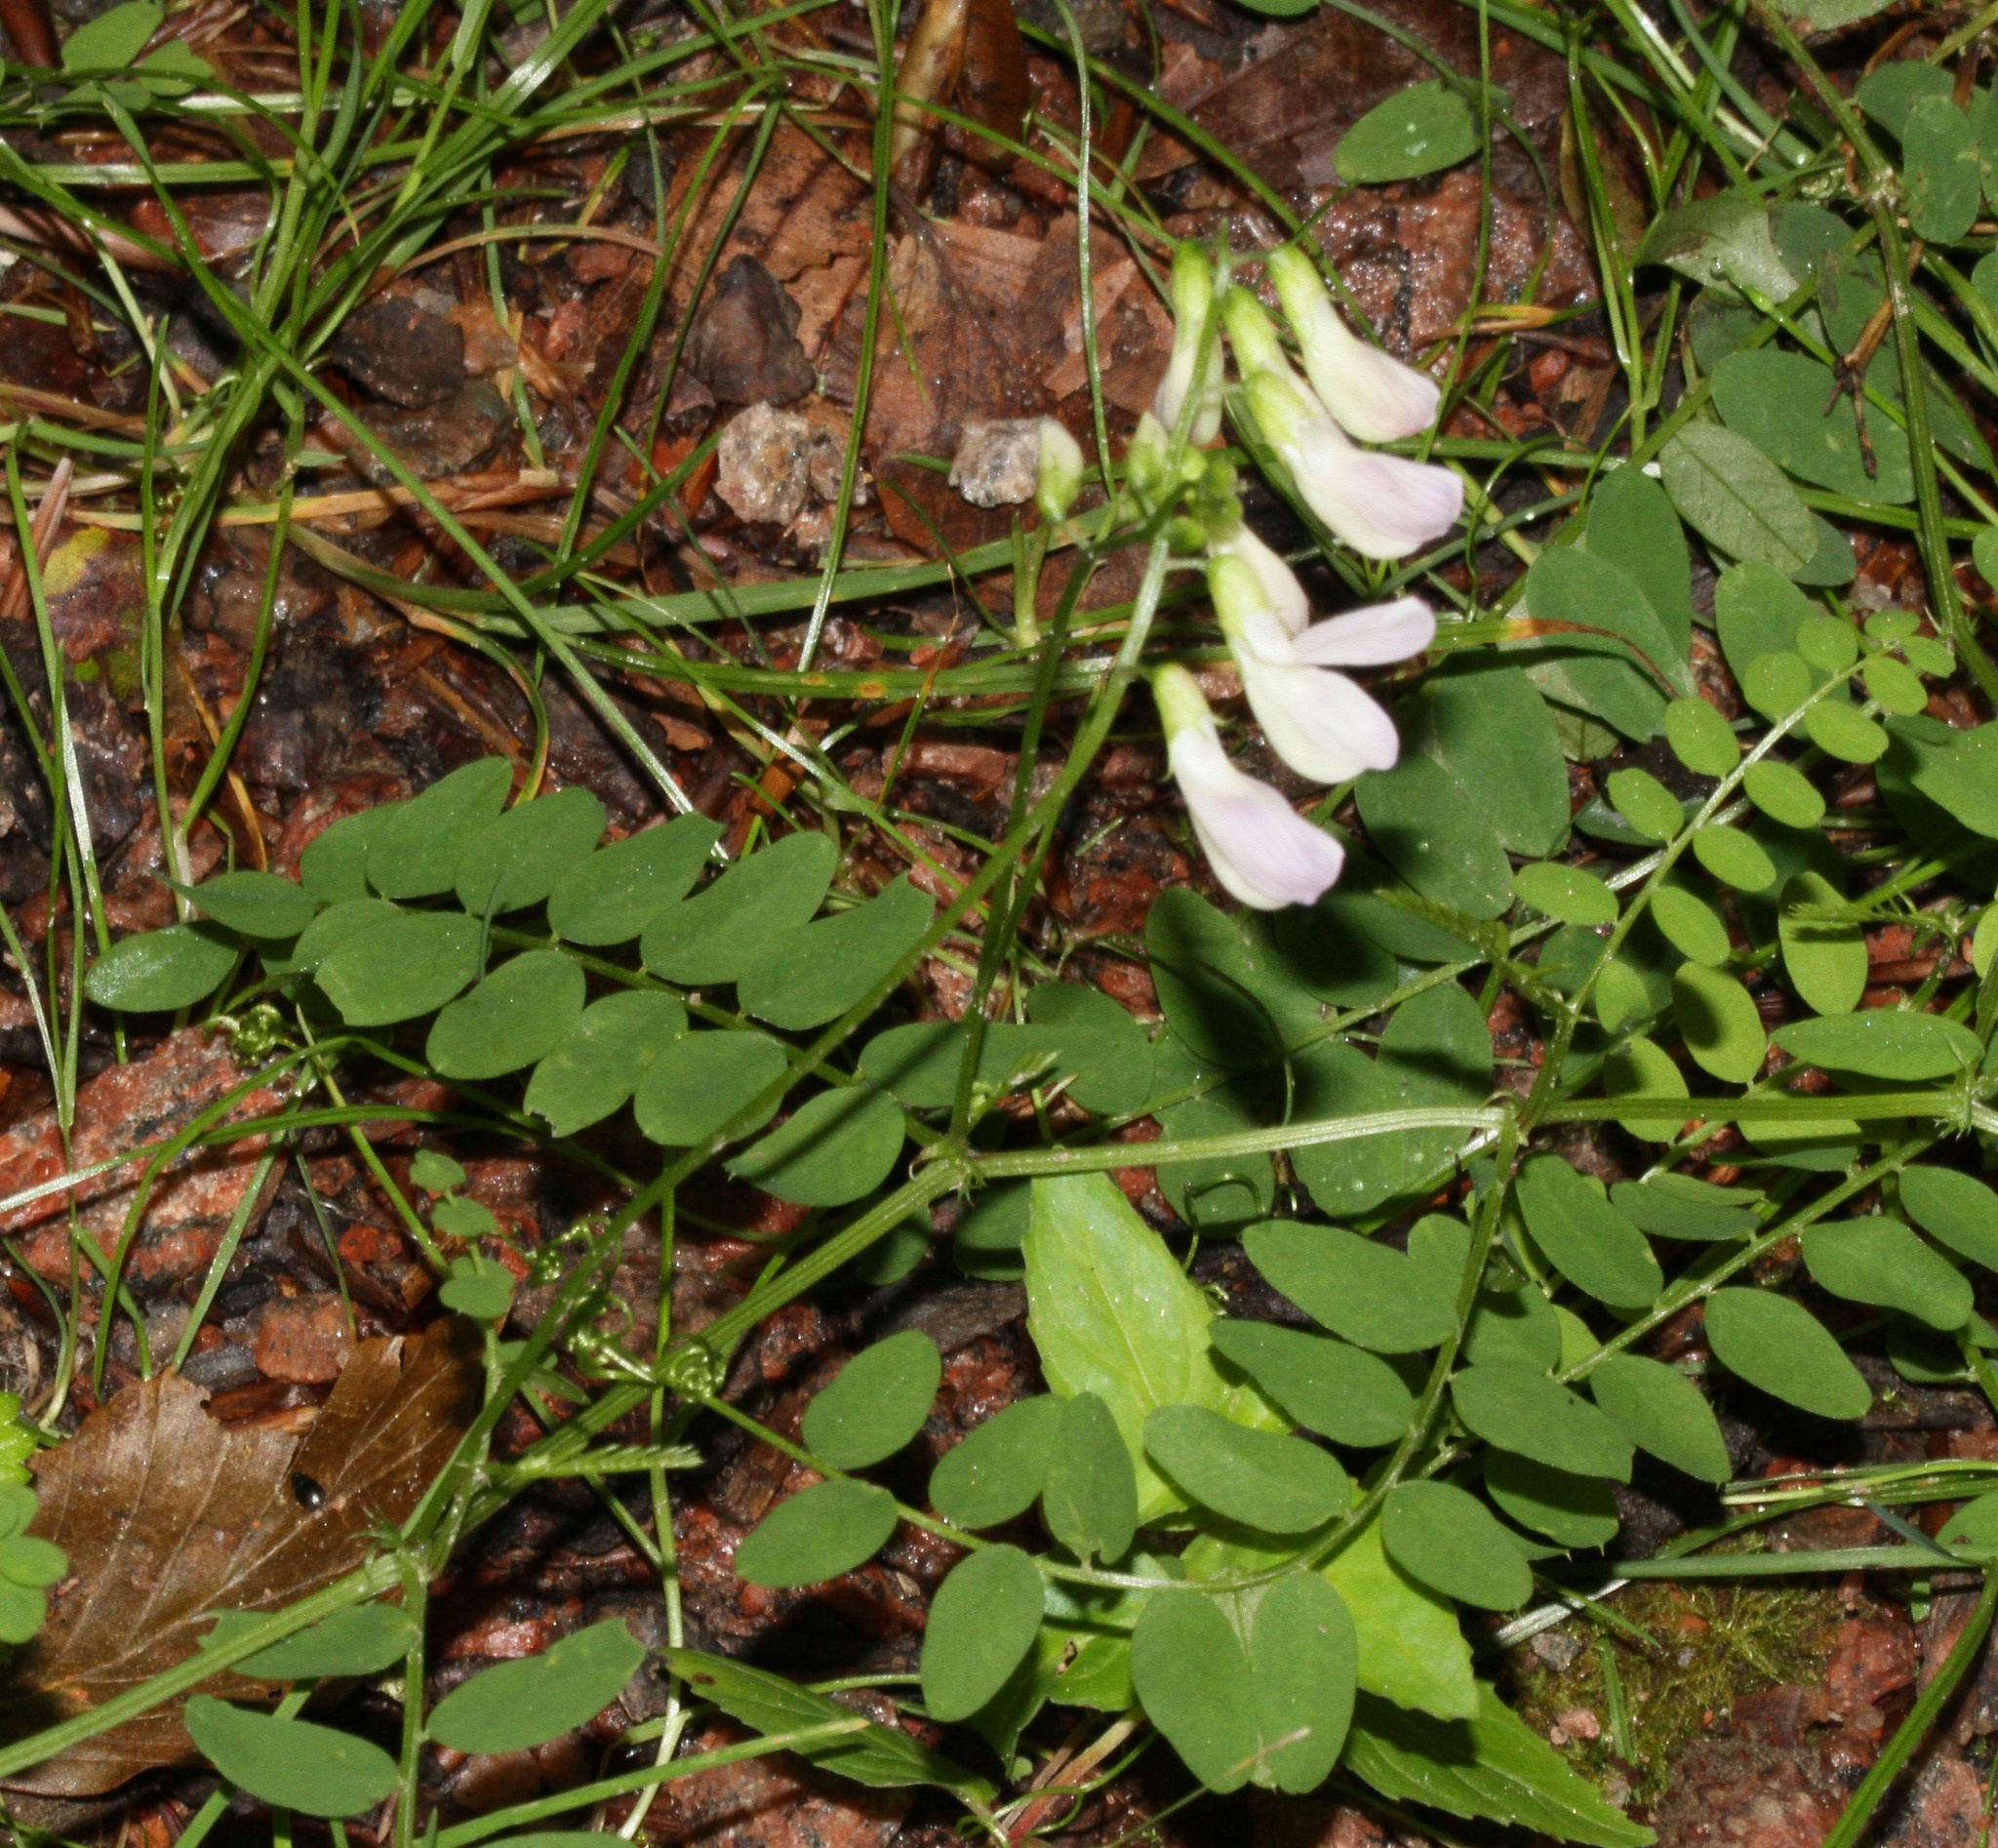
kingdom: Plantae
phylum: Tracheophyta
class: Magnoliopsida
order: Fabales
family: Fabaceae
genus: Vicia
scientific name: Vicia sylvatica
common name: Wood vetch
